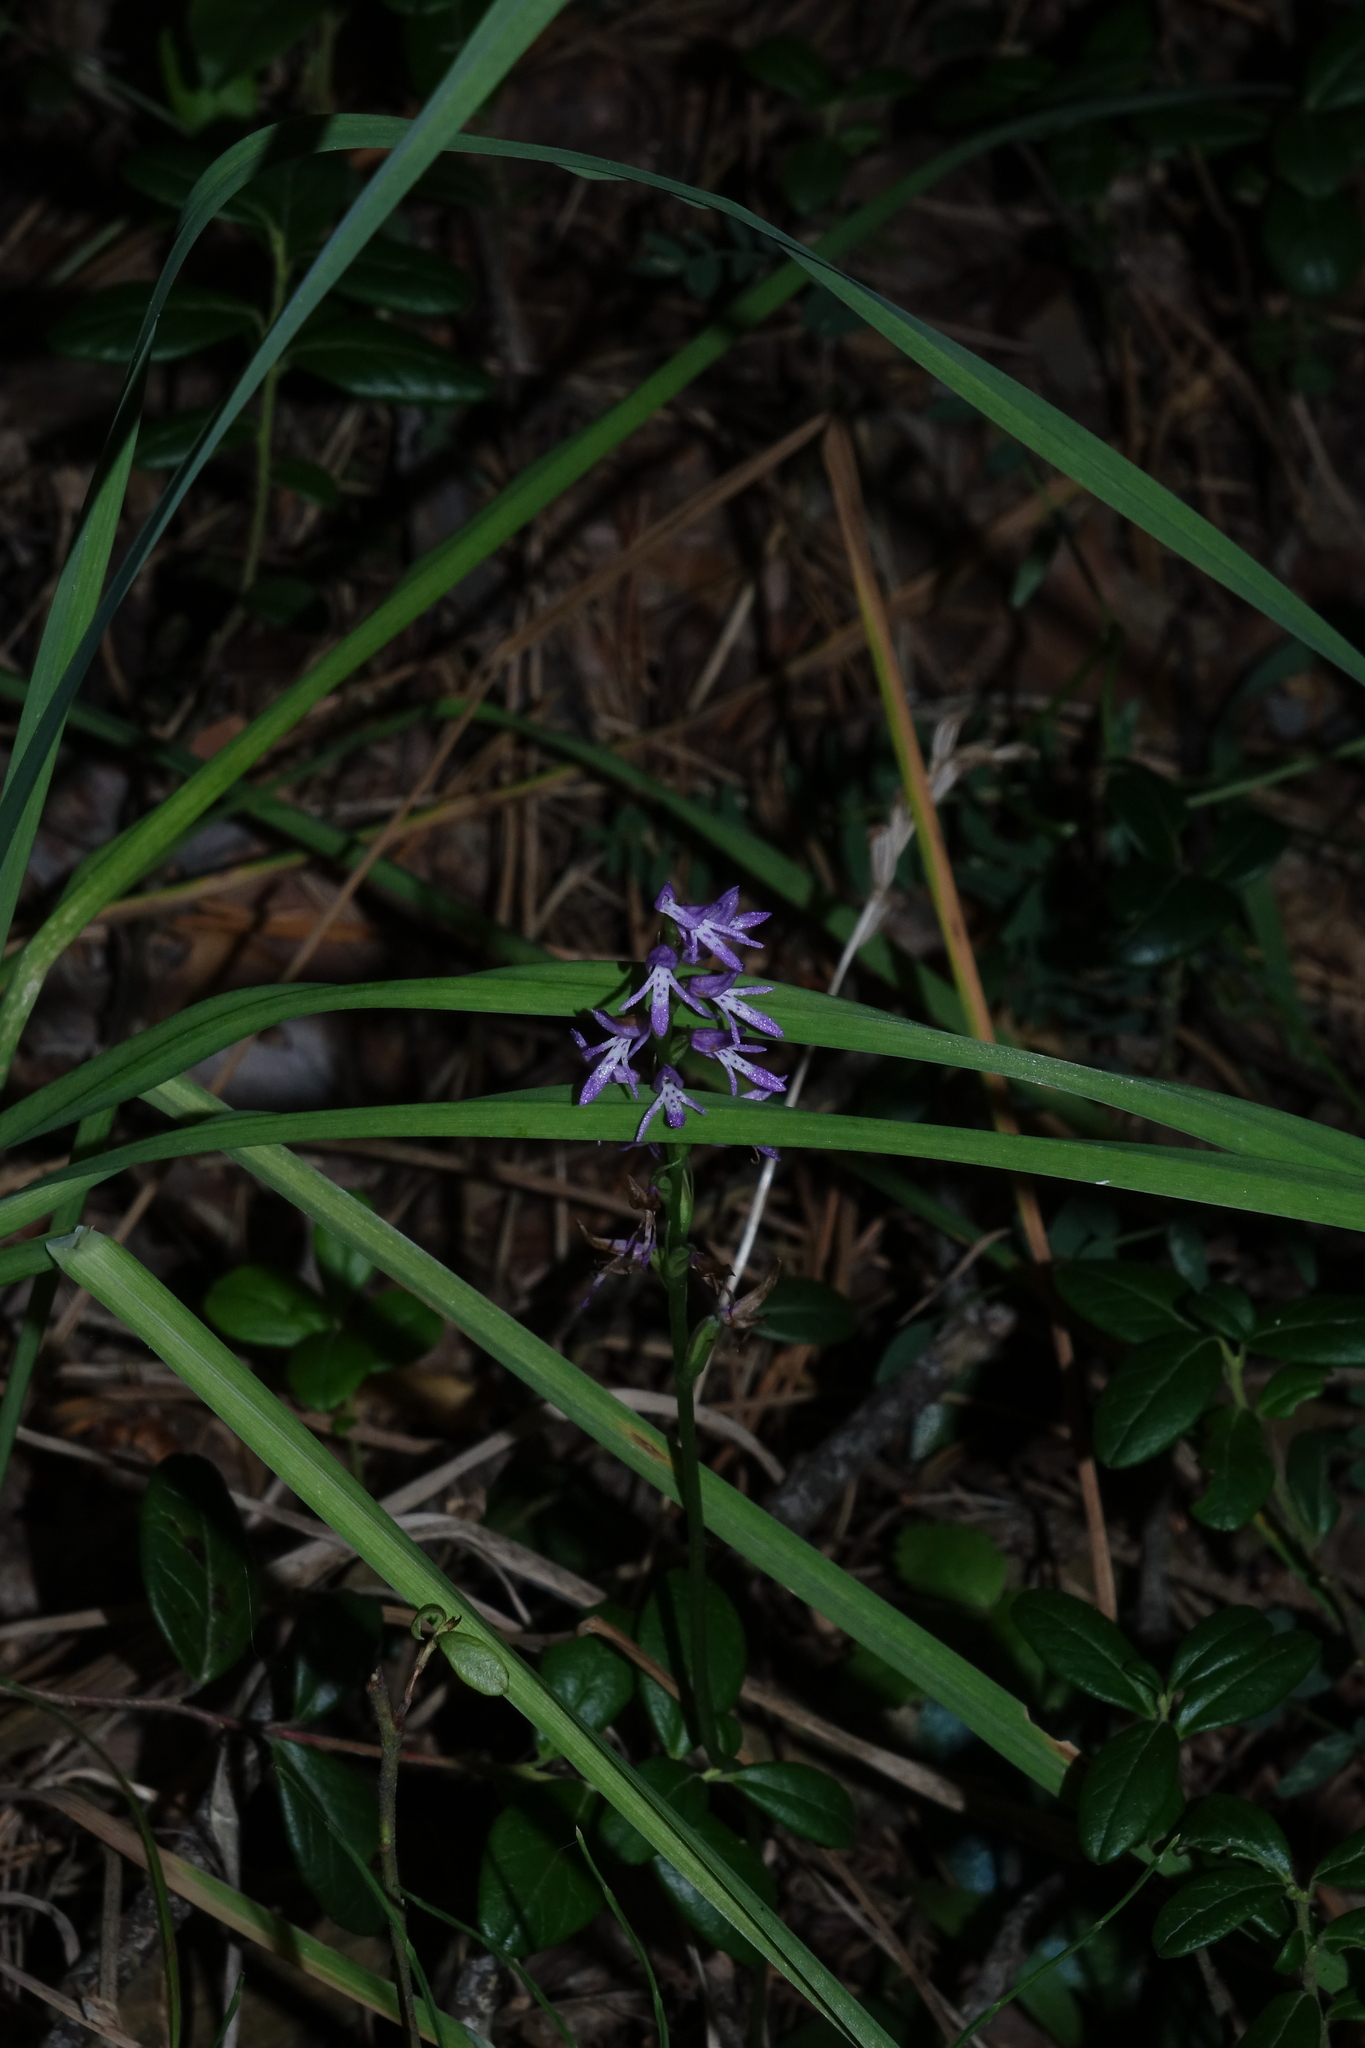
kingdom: Plantae
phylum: Tracheophyta
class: Liliopsida
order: Asparagales
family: Orchidaceae
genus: Hemipilia
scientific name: Hemipilia cucullata
